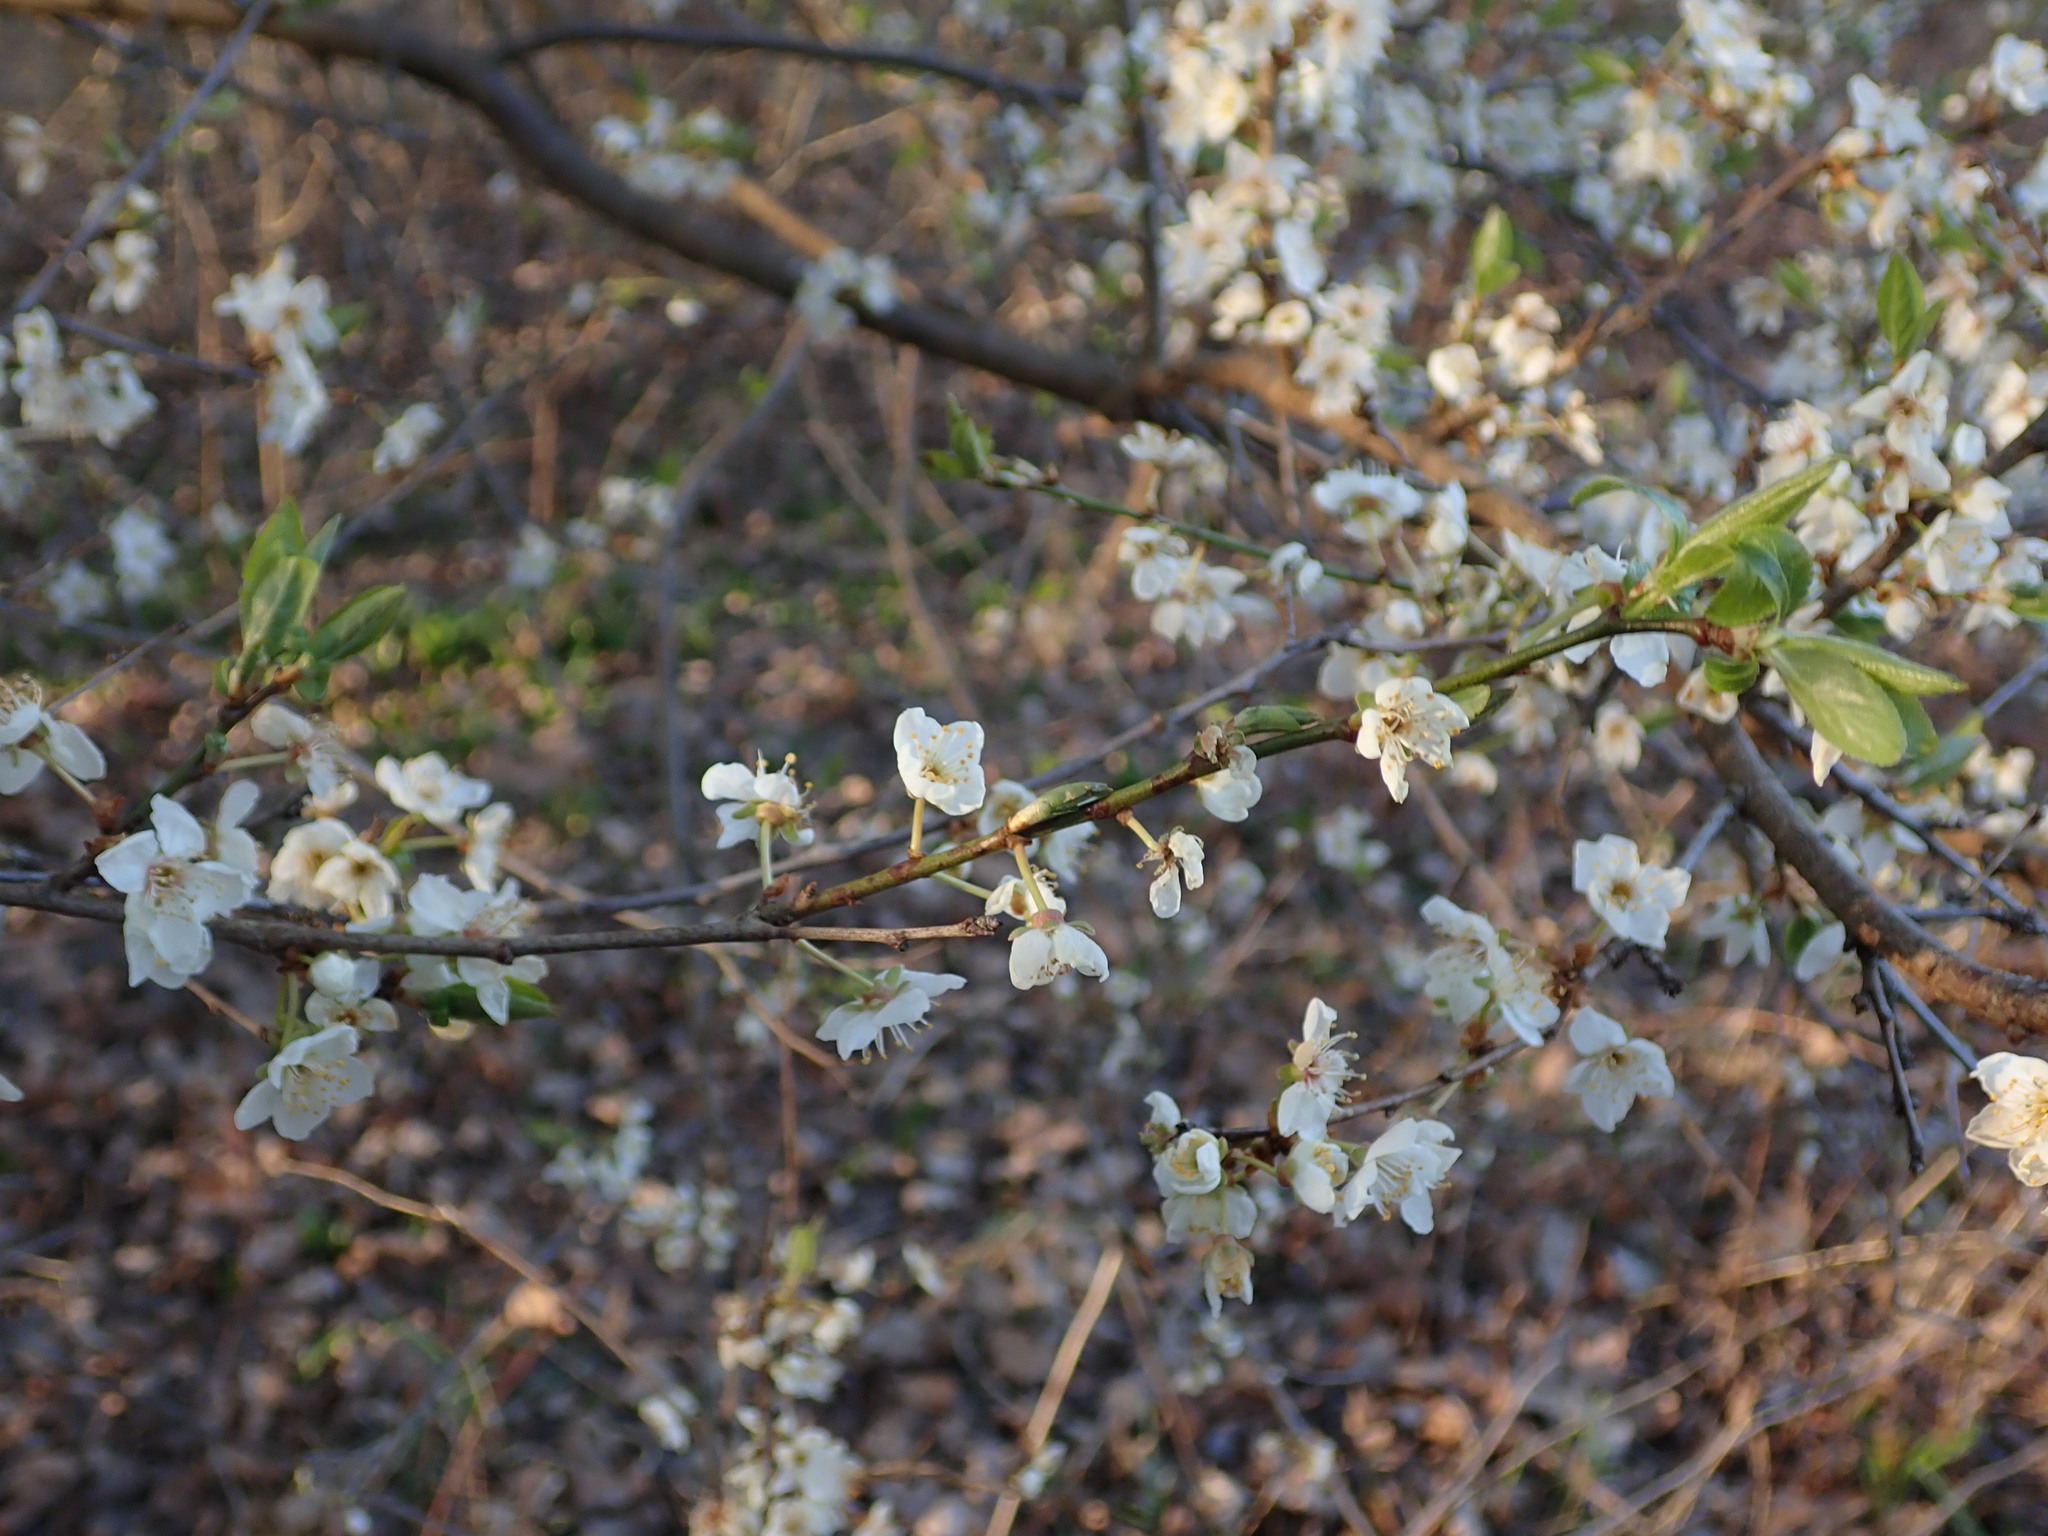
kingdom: Plantae
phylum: Tracheophyta
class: Magnoliopsida
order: Rosales
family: Rosaceae
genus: Prunus
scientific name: Prunus cerasifera
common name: Cherry plum
